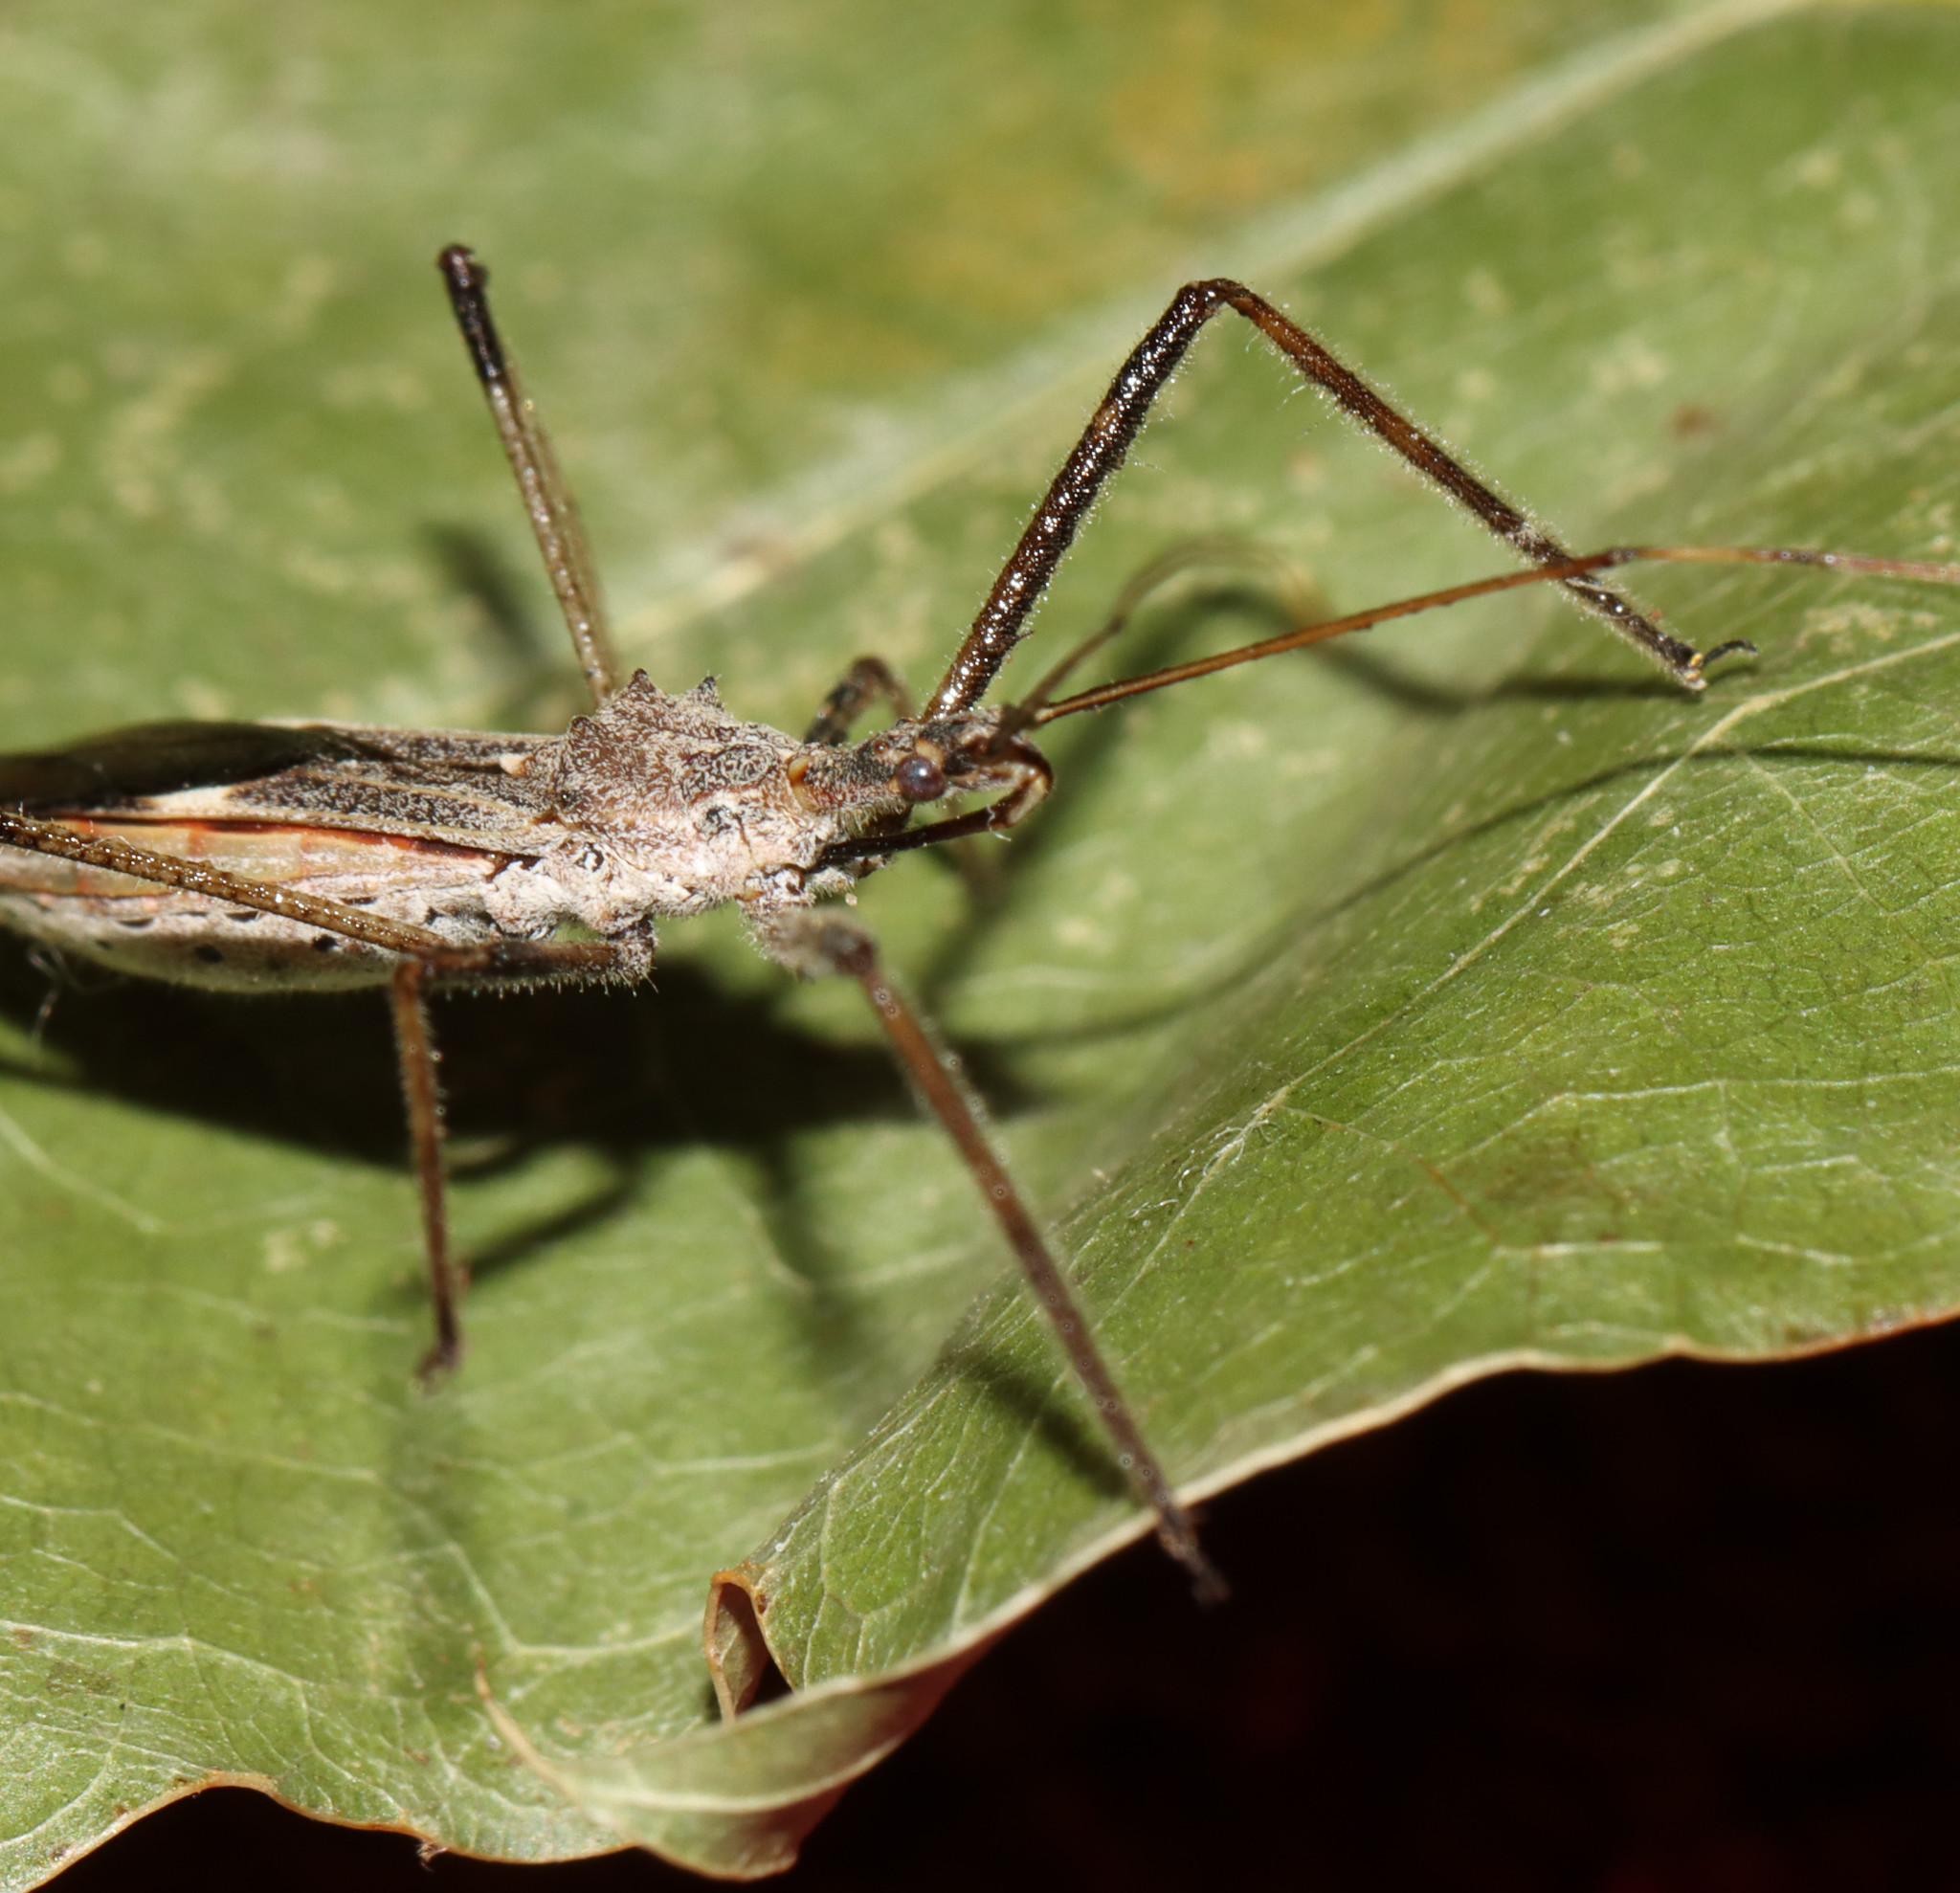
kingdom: Animalia
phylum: Arthropoda
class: Insecta
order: Hemiptera
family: Reduviidae
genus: Zelus
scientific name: Zelus tetracanthus
